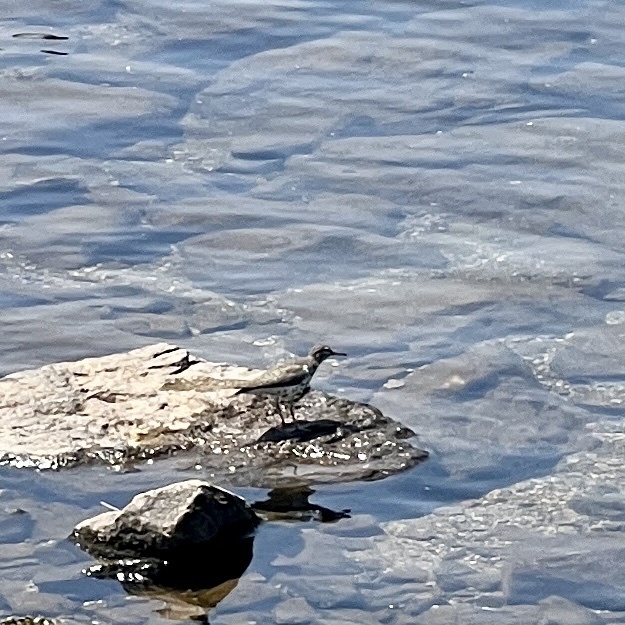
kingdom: Animalia
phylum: Chordata
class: Aves
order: Charadriiformes
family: Scolopacidae
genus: Actitis
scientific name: Actitis macularius
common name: Spotted sandpiper
